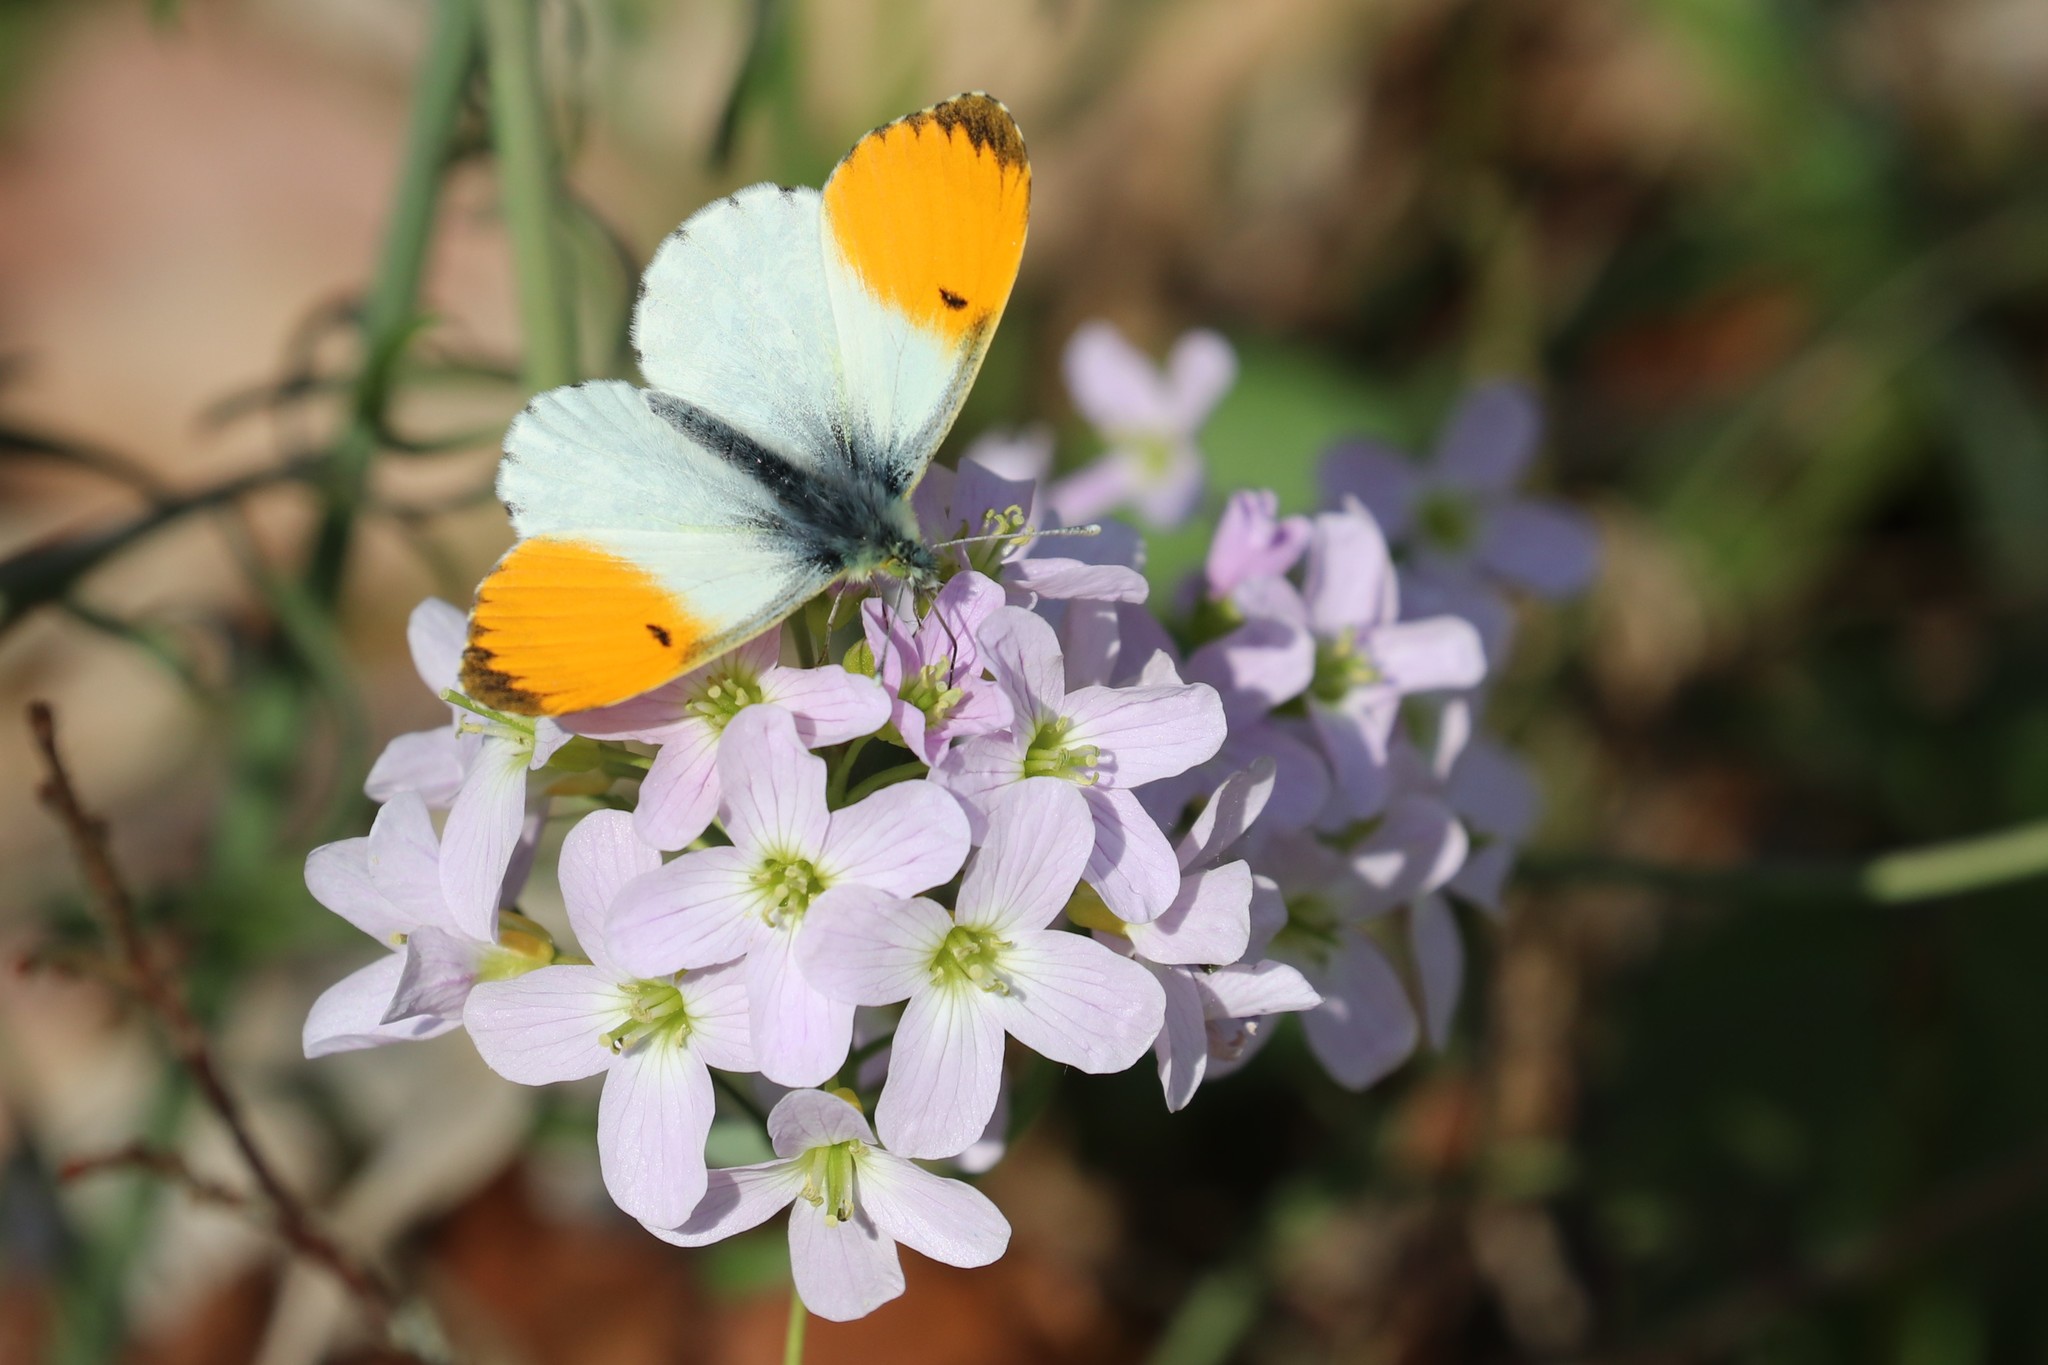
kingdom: Animalia
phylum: Arthropoda
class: Insecta
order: Lepidoptera
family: Pieridae
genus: Anthocharis
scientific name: Anthocharis cardamines
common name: Orange-tip
